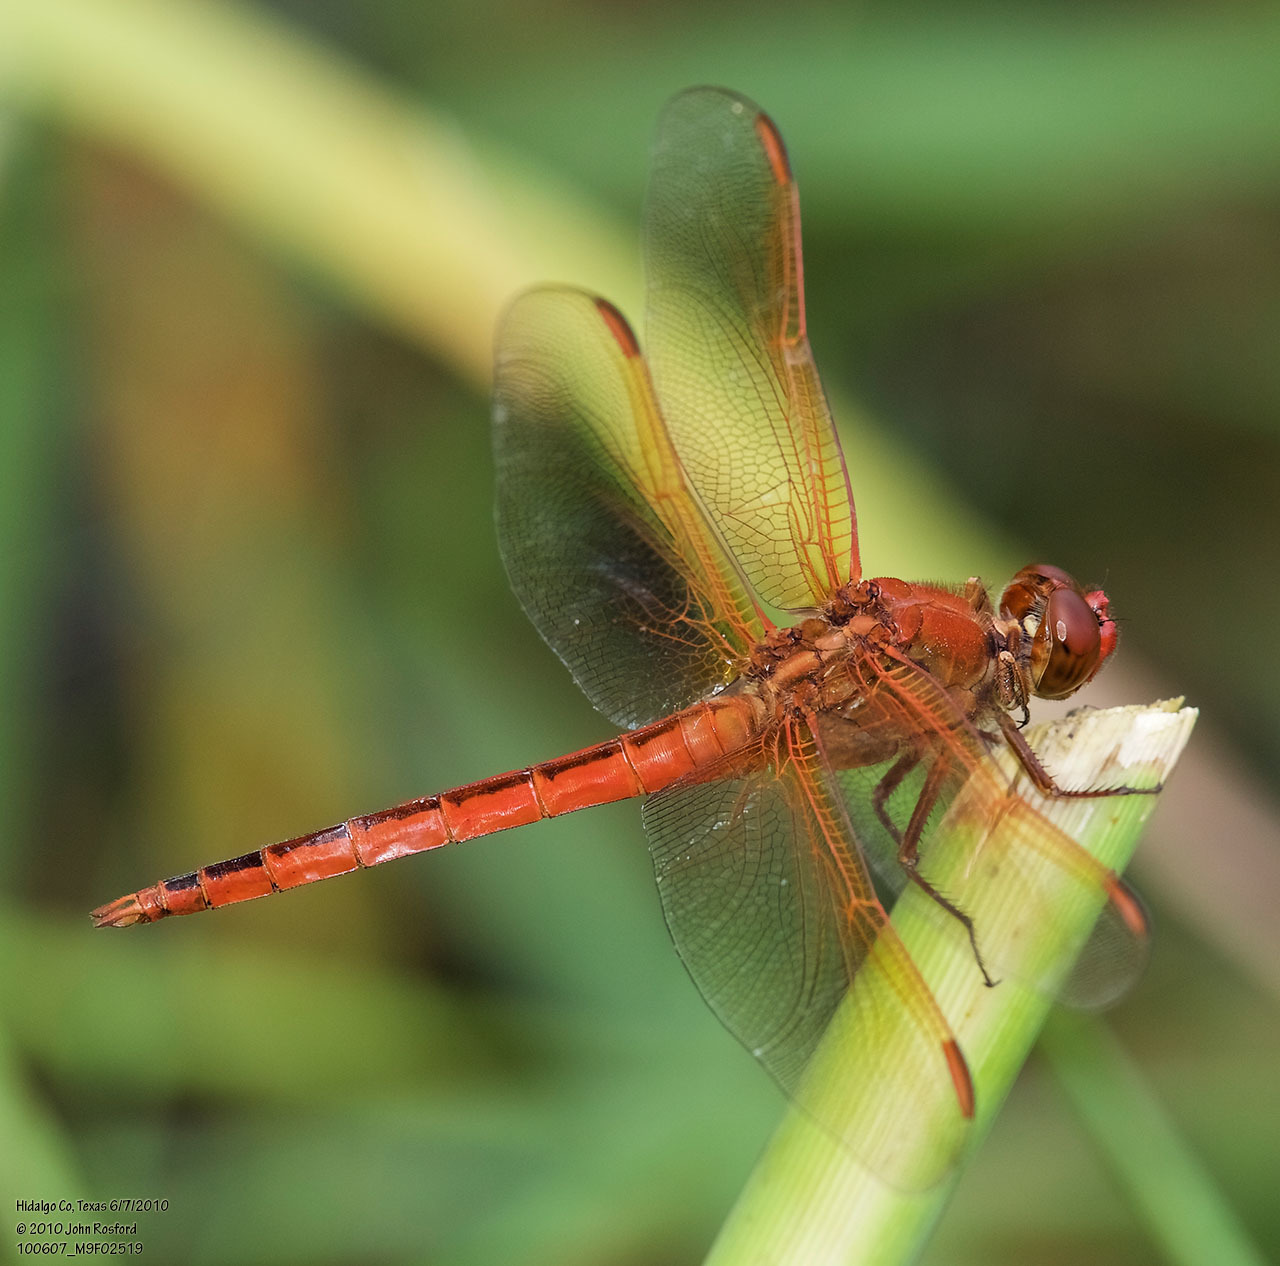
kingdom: Animalia
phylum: Arthropoda
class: Insecta
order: Odonata
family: Libellulidae
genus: Libellula
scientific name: Libellula needhami
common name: Needham's skimmer
